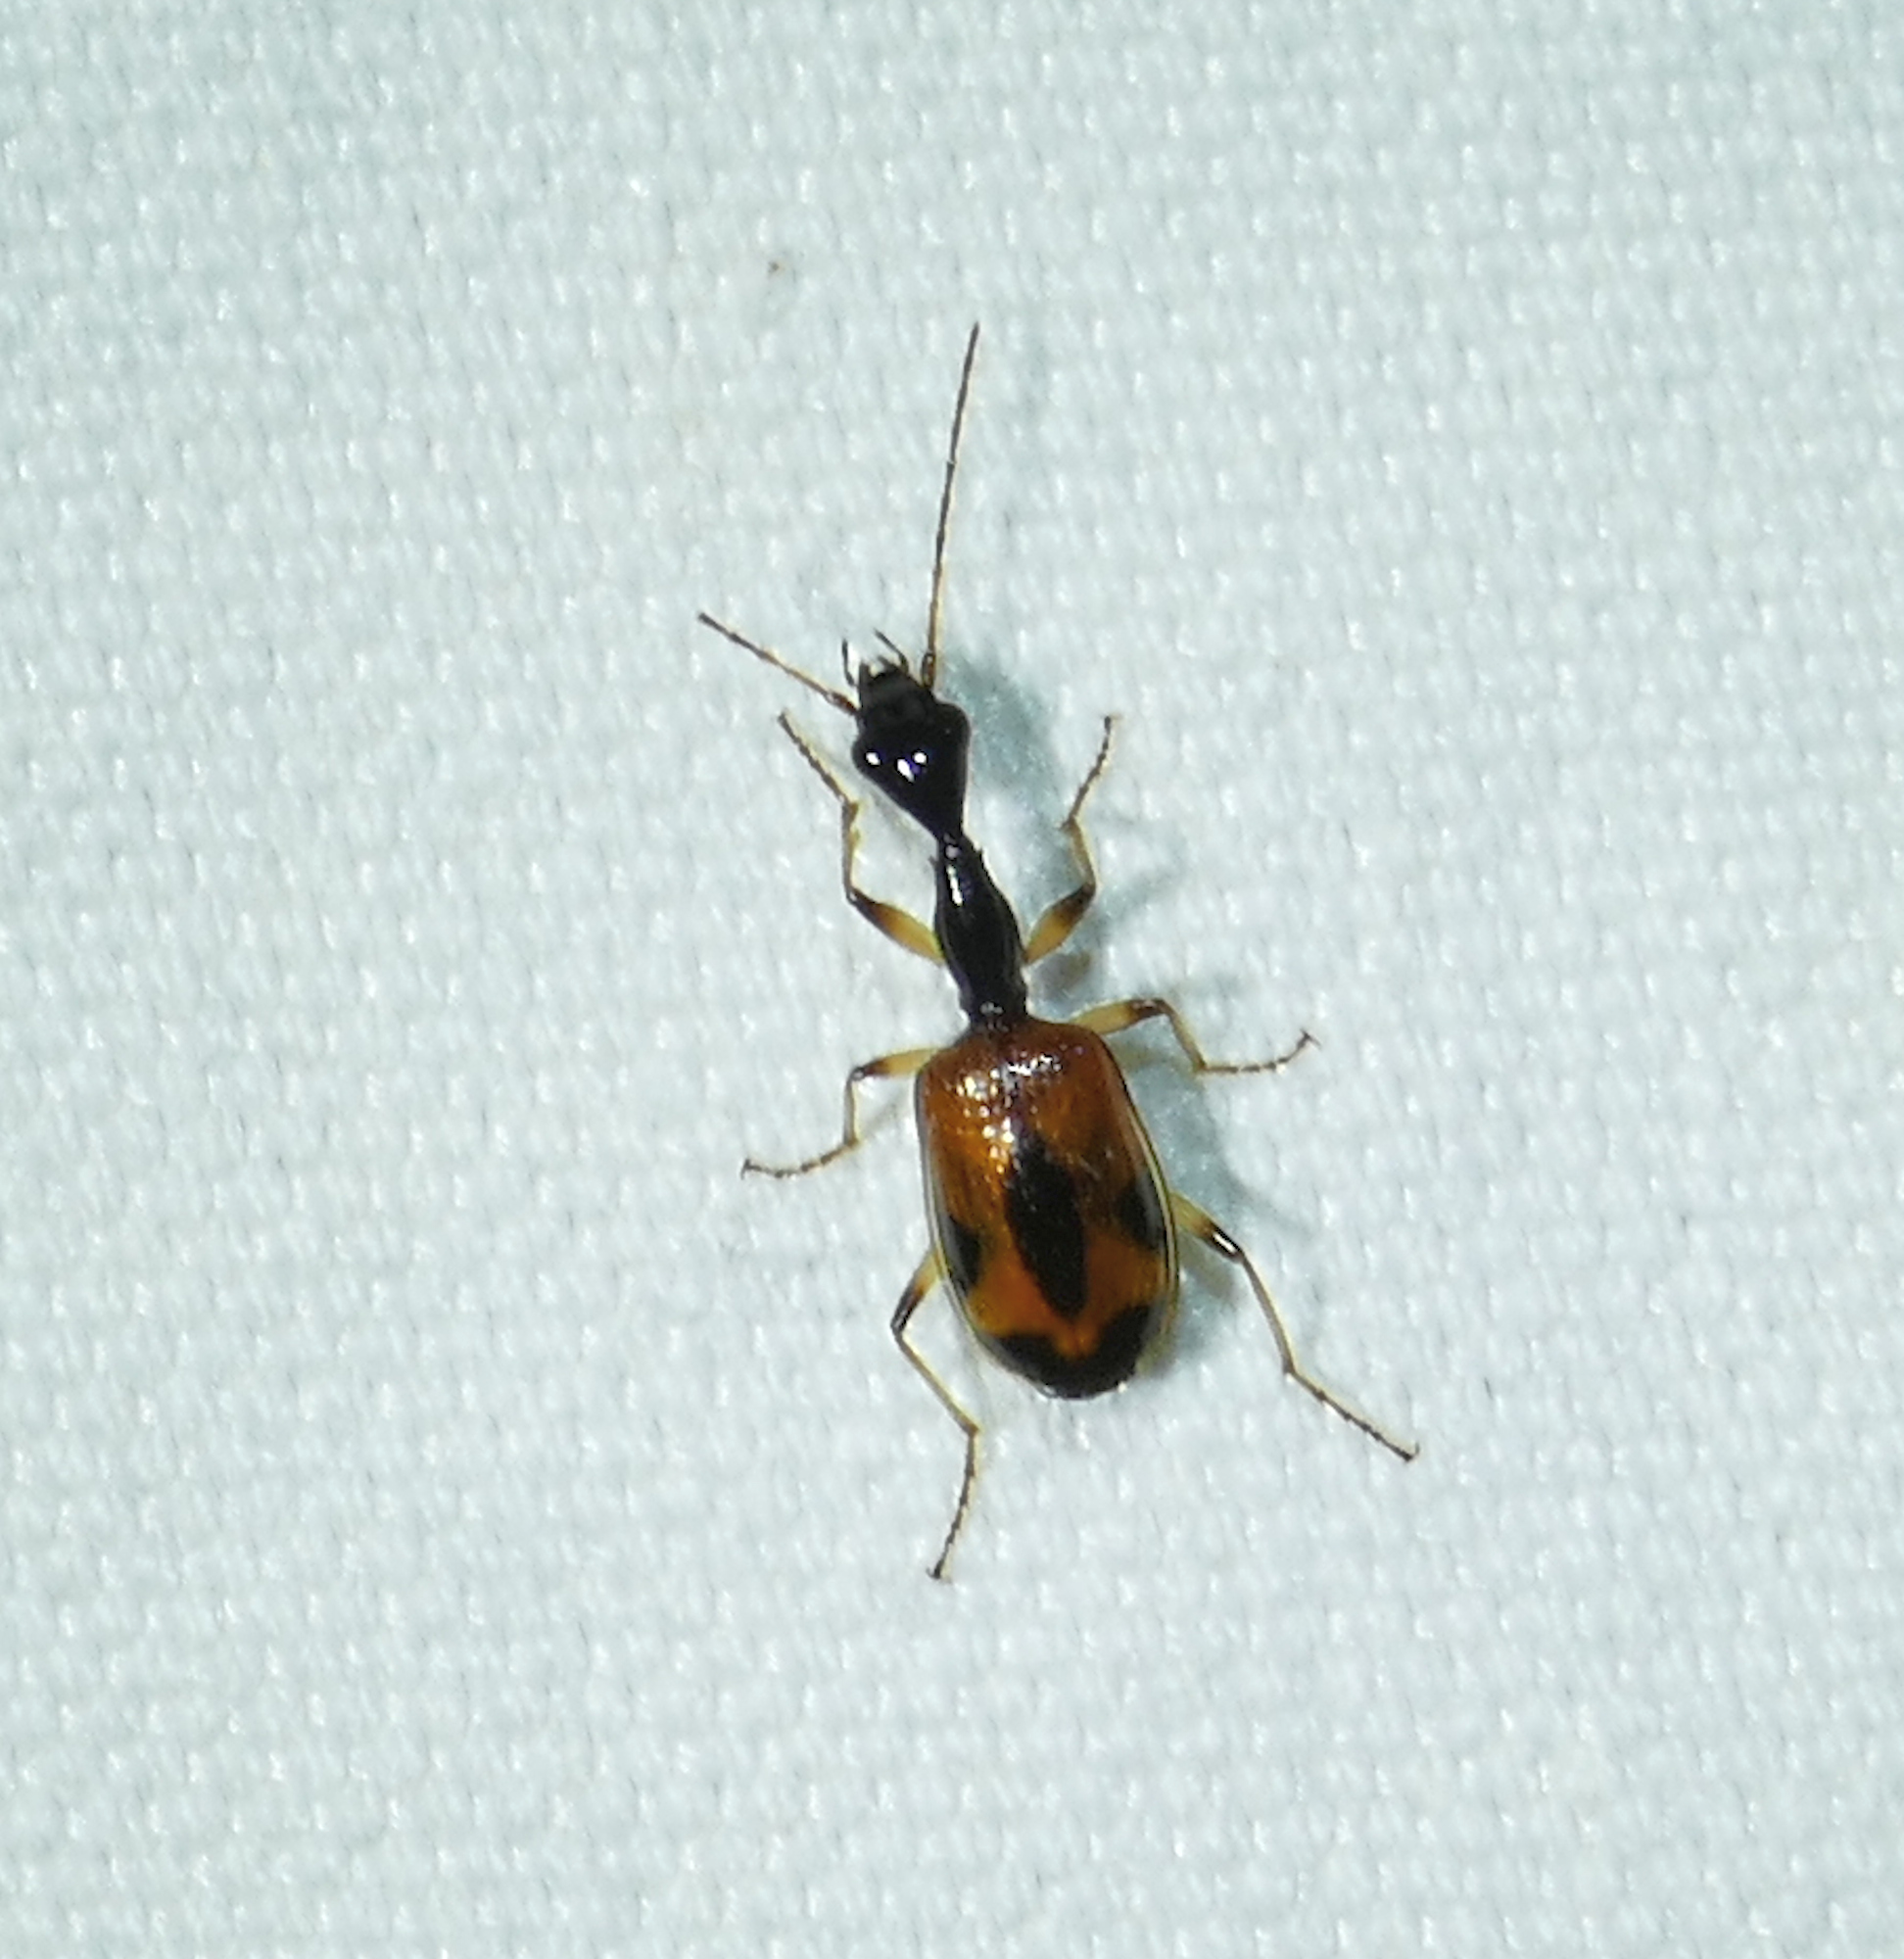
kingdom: Animalia
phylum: Arthropoda
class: Insecta
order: Coleoptera
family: Carabidae
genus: Colliuris
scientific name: Colliuris pensylvanica
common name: Long-necked ground beetle
